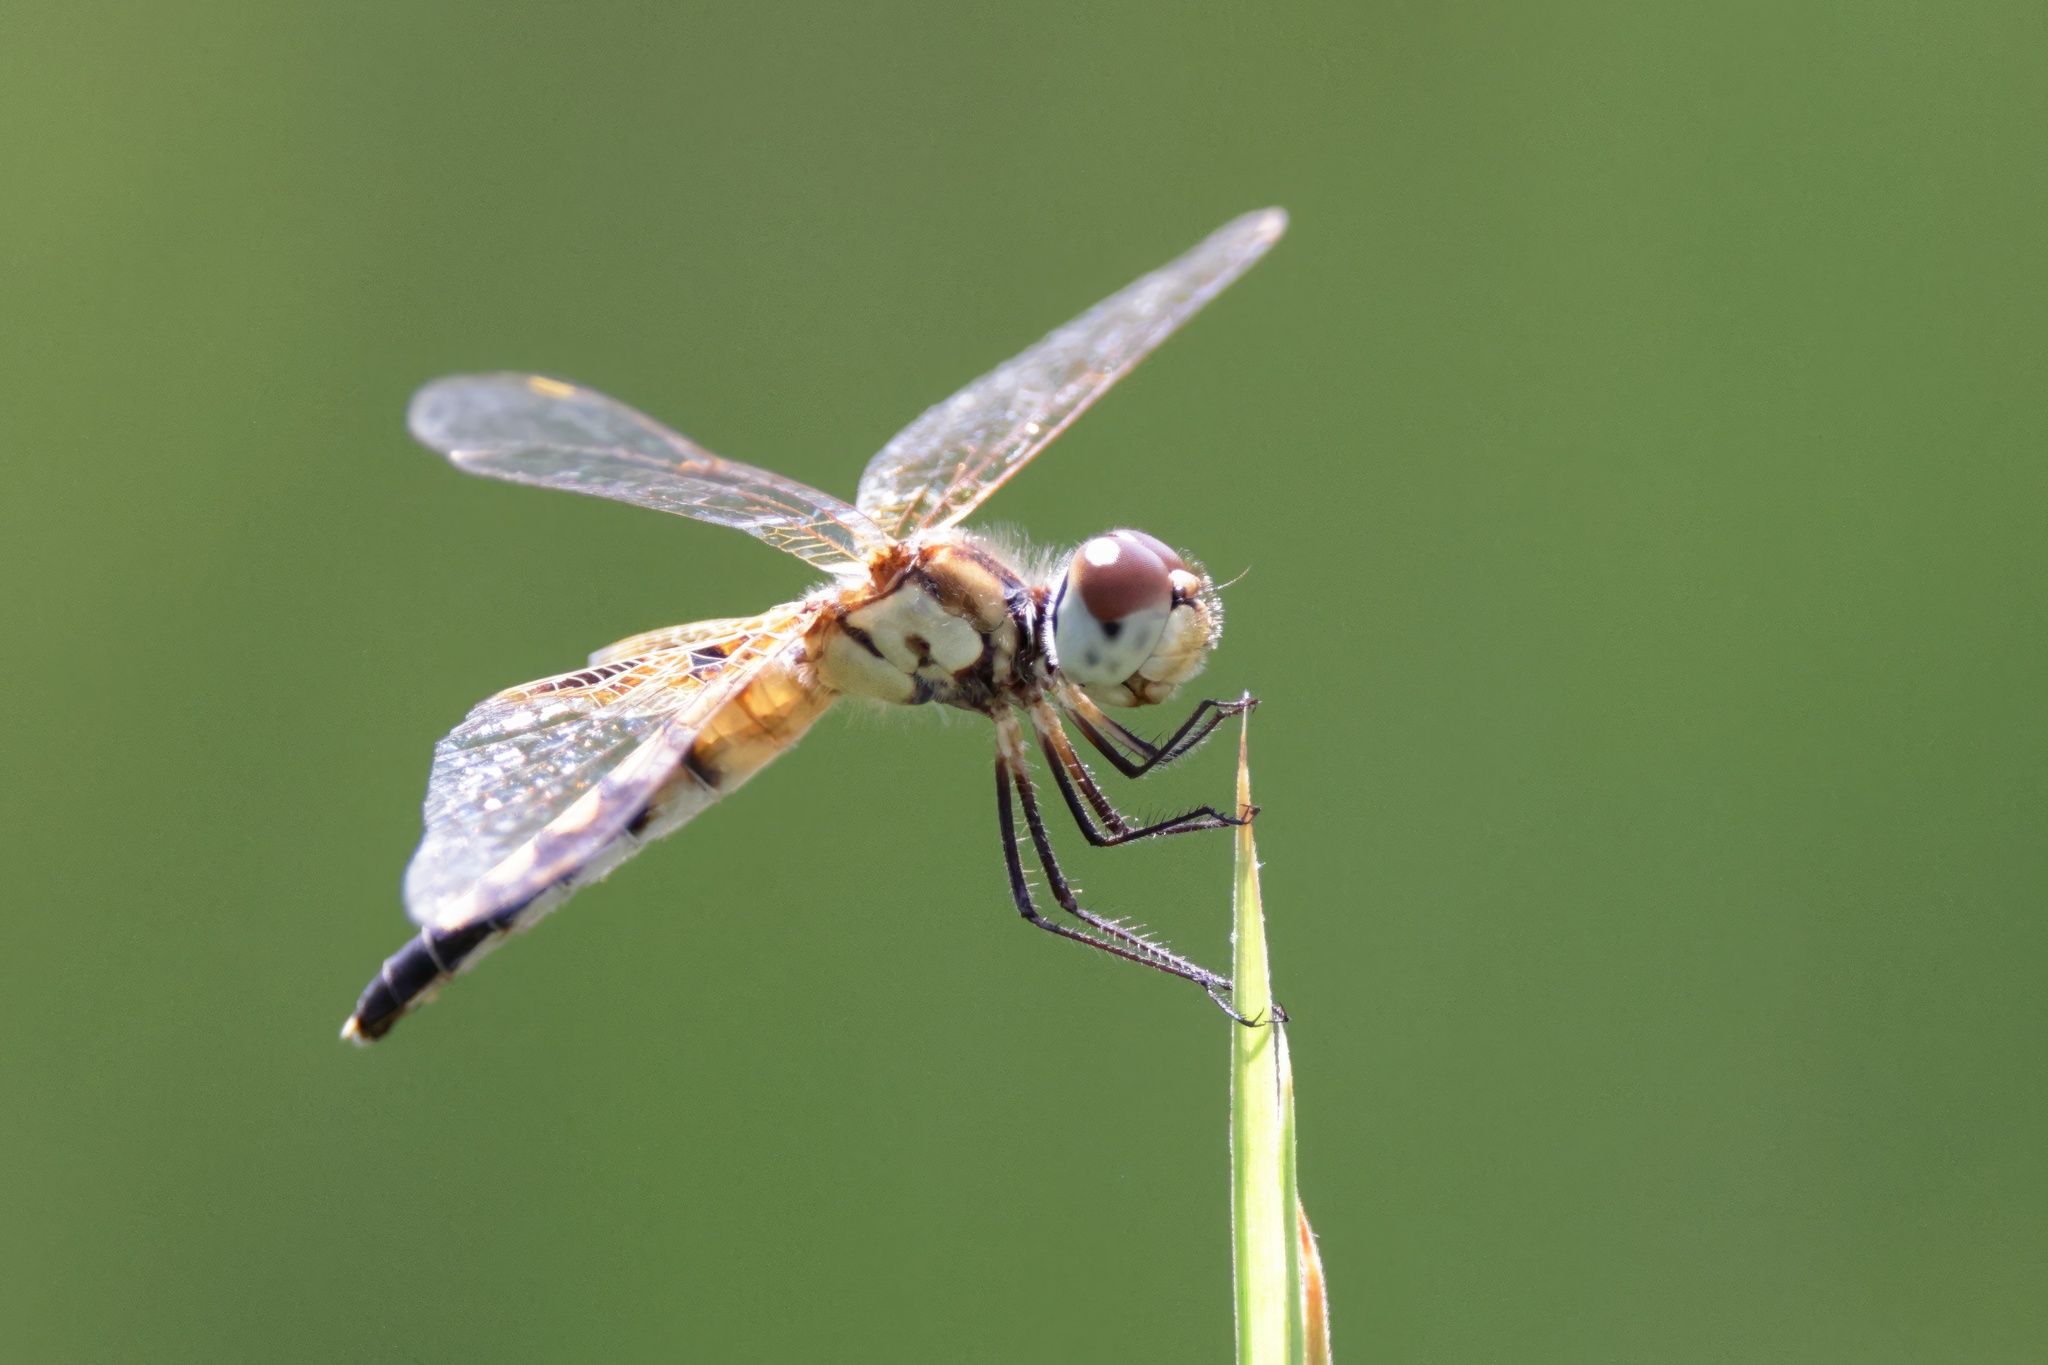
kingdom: Animalia
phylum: Arthropoda
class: Insecta
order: Odonata
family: Libellulidae
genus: Celithemis
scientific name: Celithemis amanda
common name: Amanda's pennant
